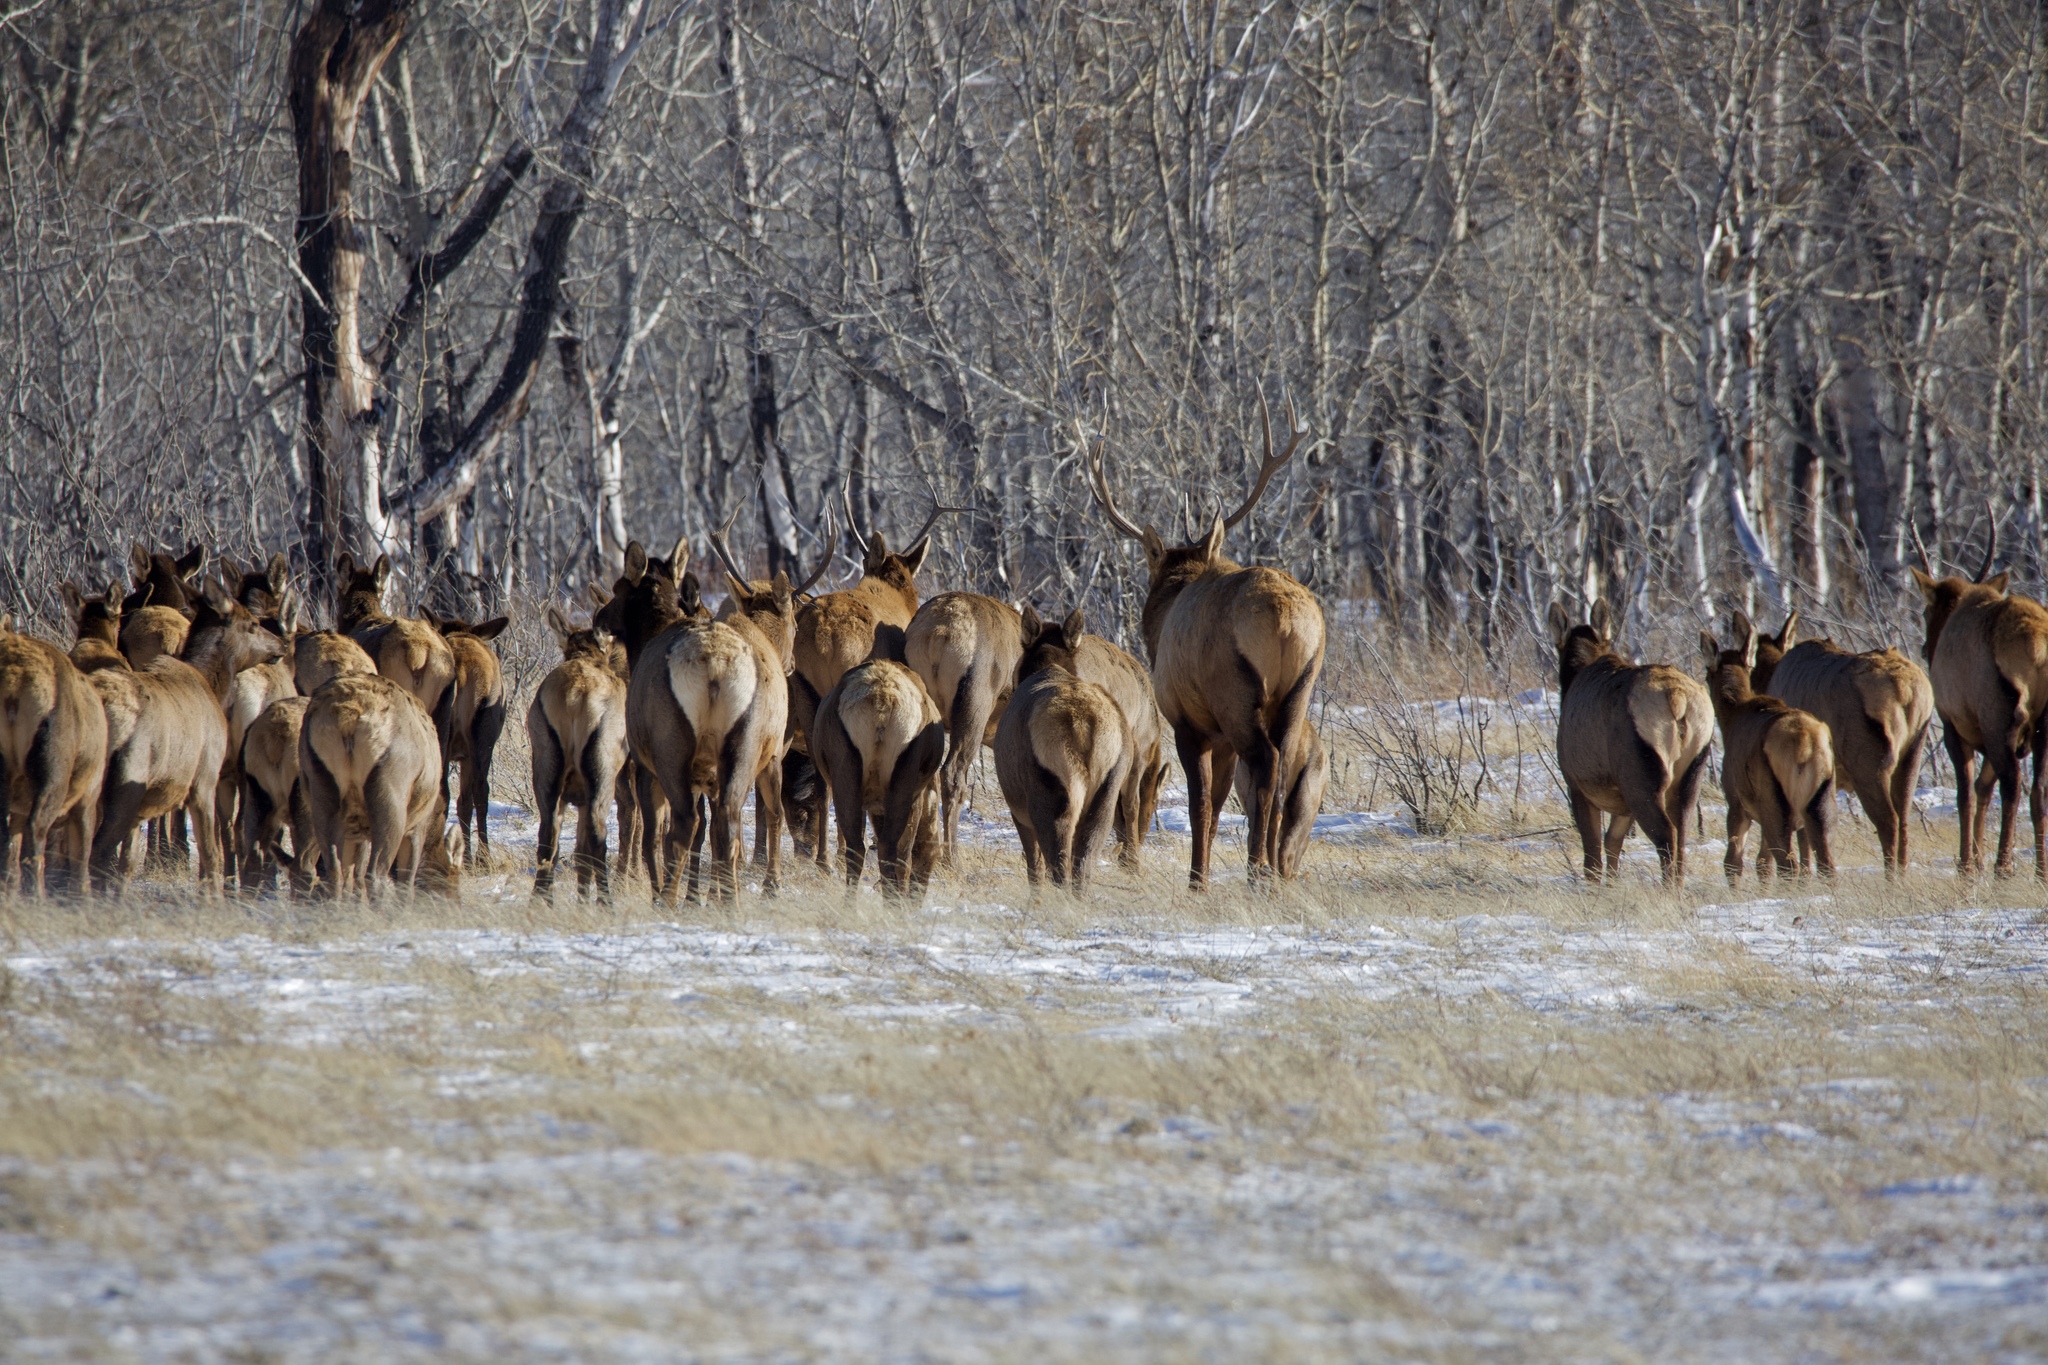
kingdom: Animalia
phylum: Chordata
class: Mammalia
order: Artiodactyla
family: Cervidae
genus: Cervus
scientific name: Cervus elaphus
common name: Red deer
